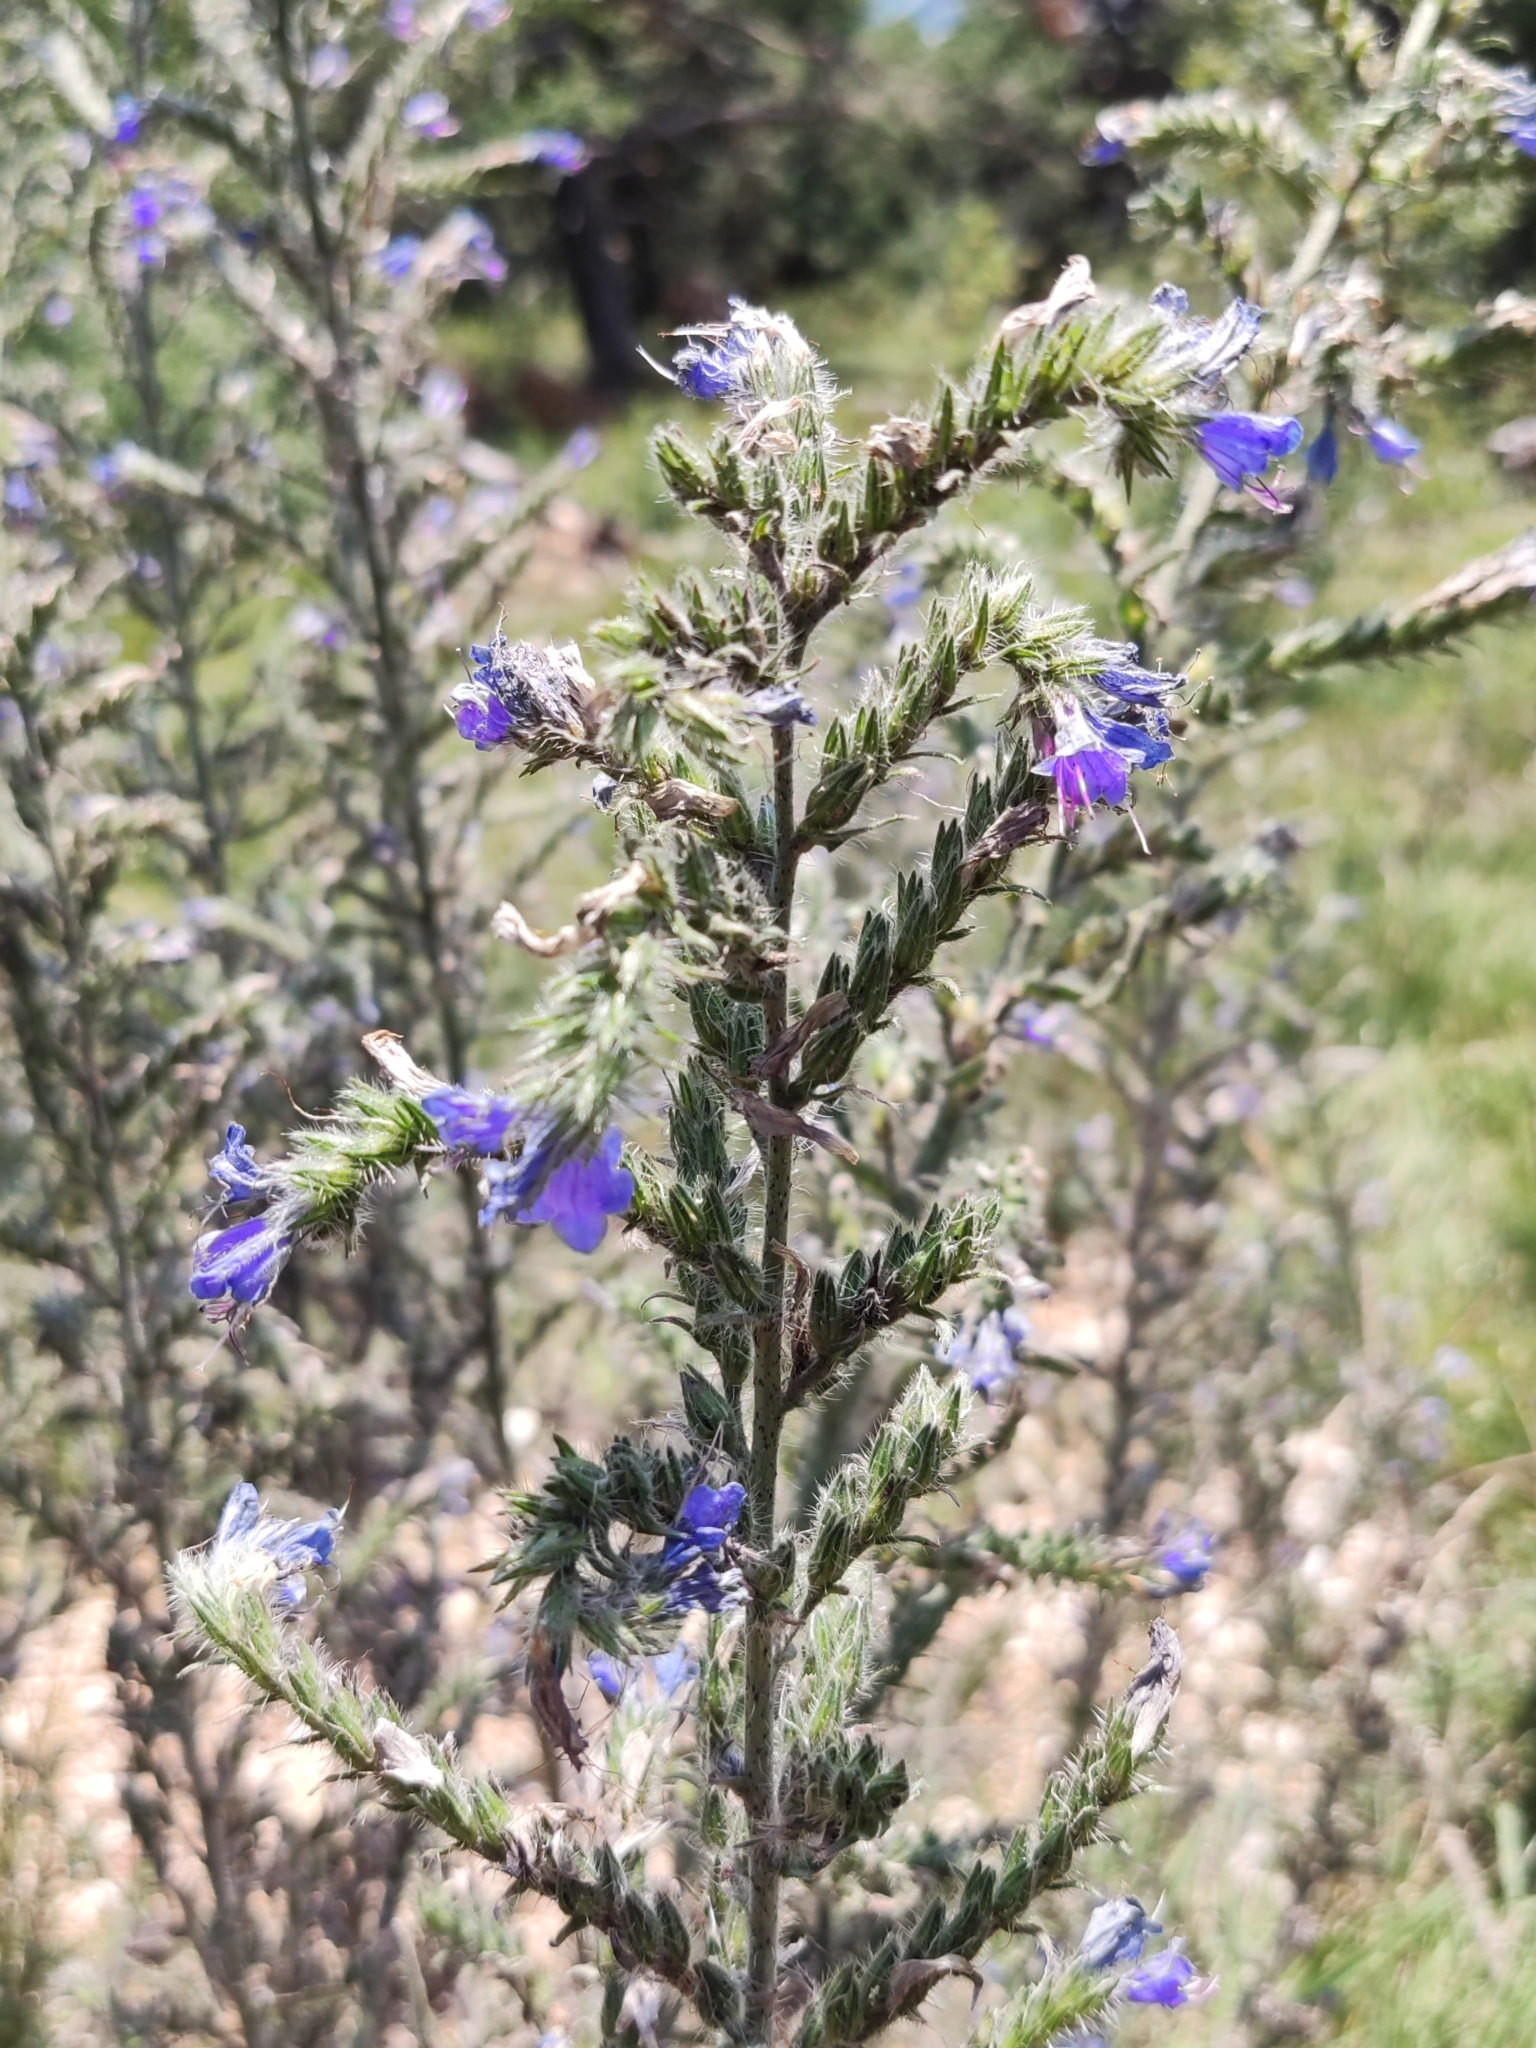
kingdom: Plantae
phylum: Tracheophyta
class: Magnoliopsida
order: Boraginales
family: Boraginaceae
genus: Echium
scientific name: Echium vulgare
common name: Common viper's bugloss
